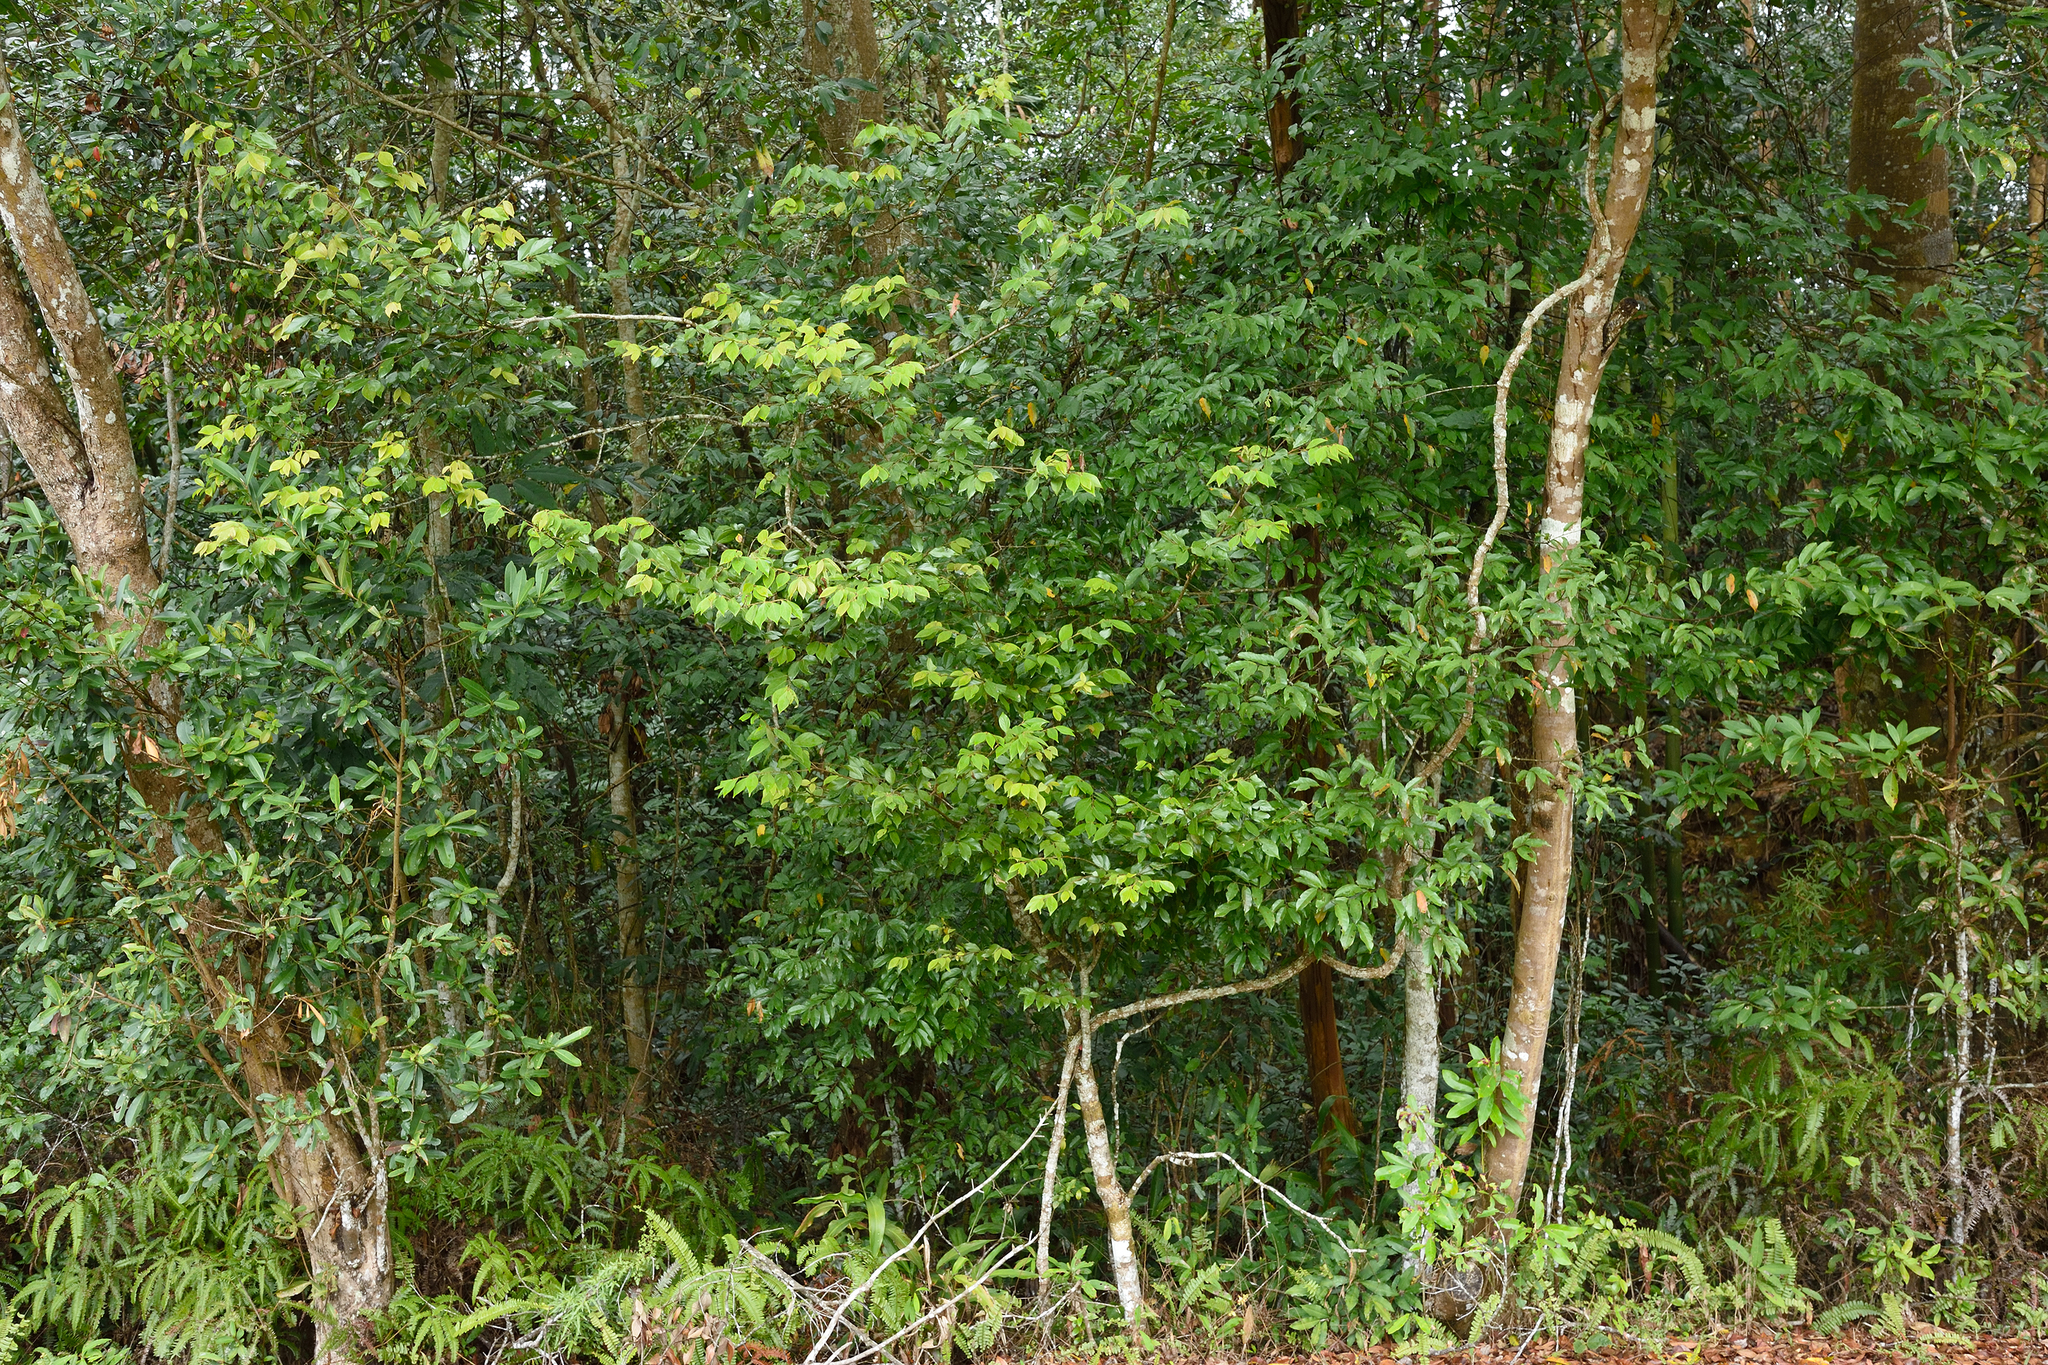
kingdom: Plantae
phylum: Tracheophyta
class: Magnoliopsida
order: Laurales
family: Lauraceae
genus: Lindera
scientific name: Lindera communis
